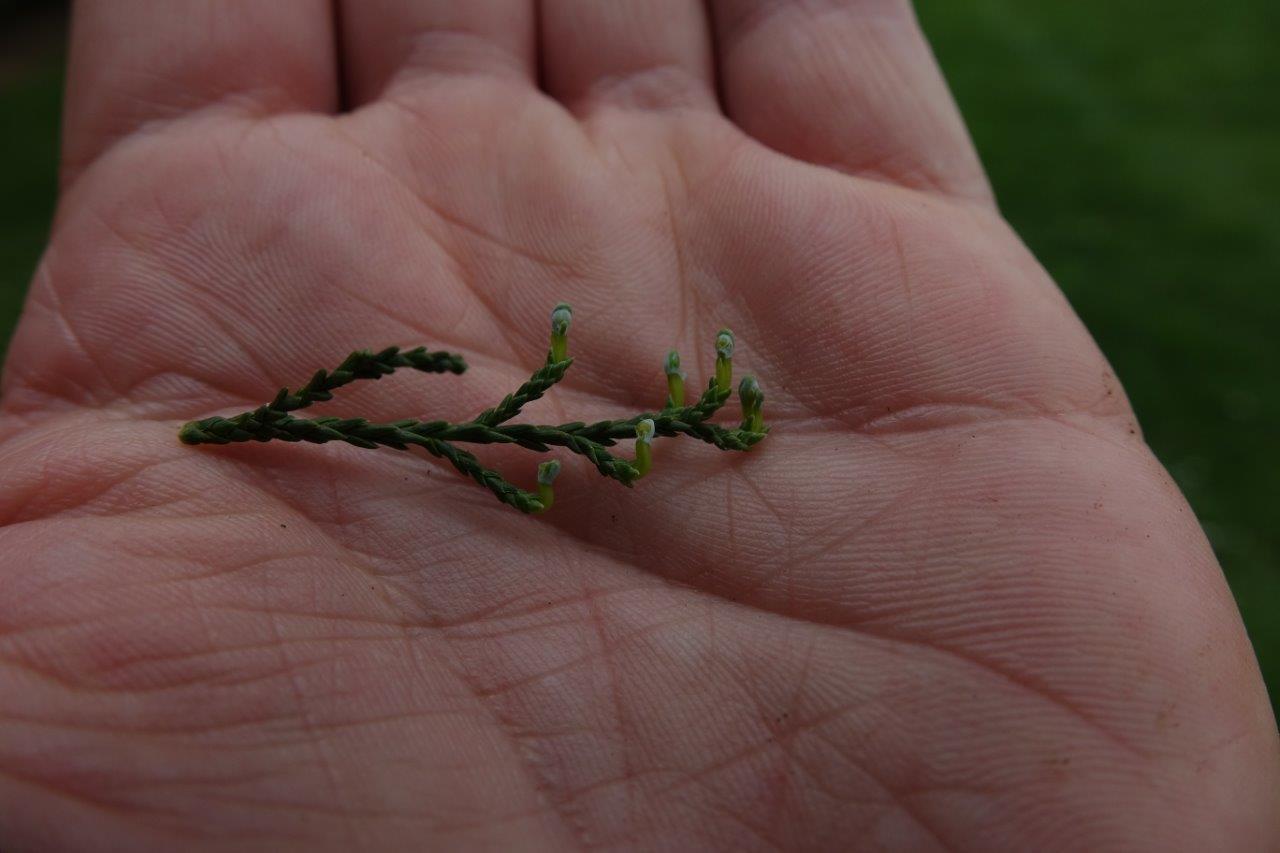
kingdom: Plantae
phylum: Tracheophyta
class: Pinopsida
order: Pinales
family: Podocarpaceae
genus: Dacrycarpus
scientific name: Dacrycarpus dacrydioides
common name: White pine
